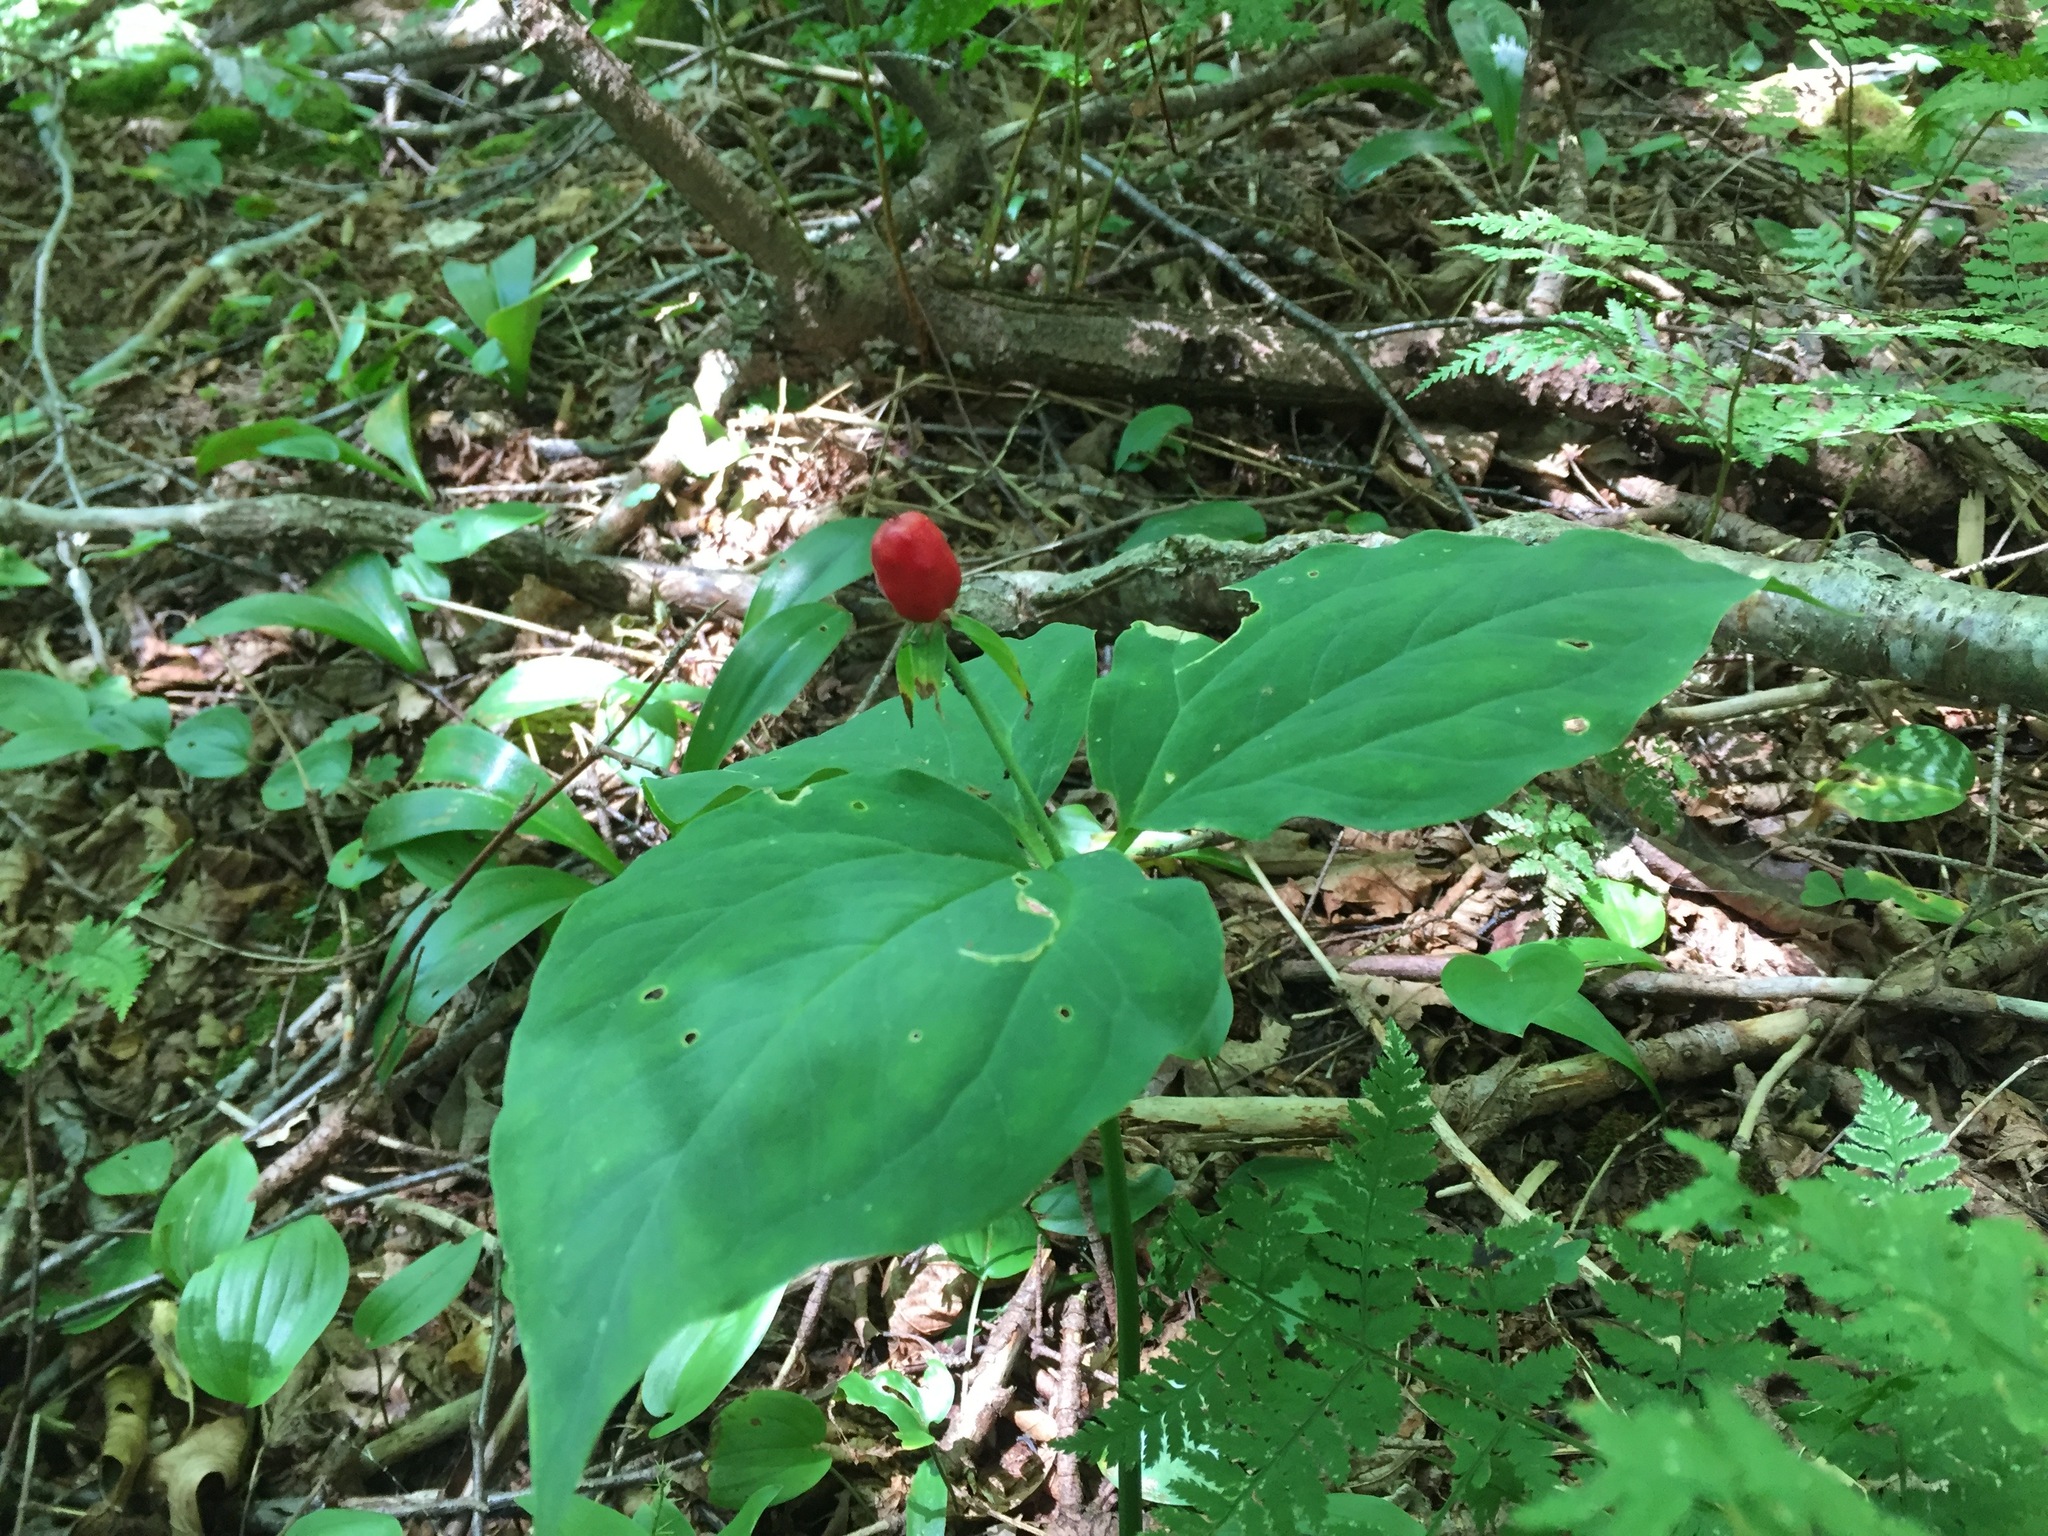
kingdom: Plantae
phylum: Tracheophyta
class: Liliopsida
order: Liliales
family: Melanthiaceae
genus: Trillium
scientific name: Trillium undulatum
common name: Paint trillium
